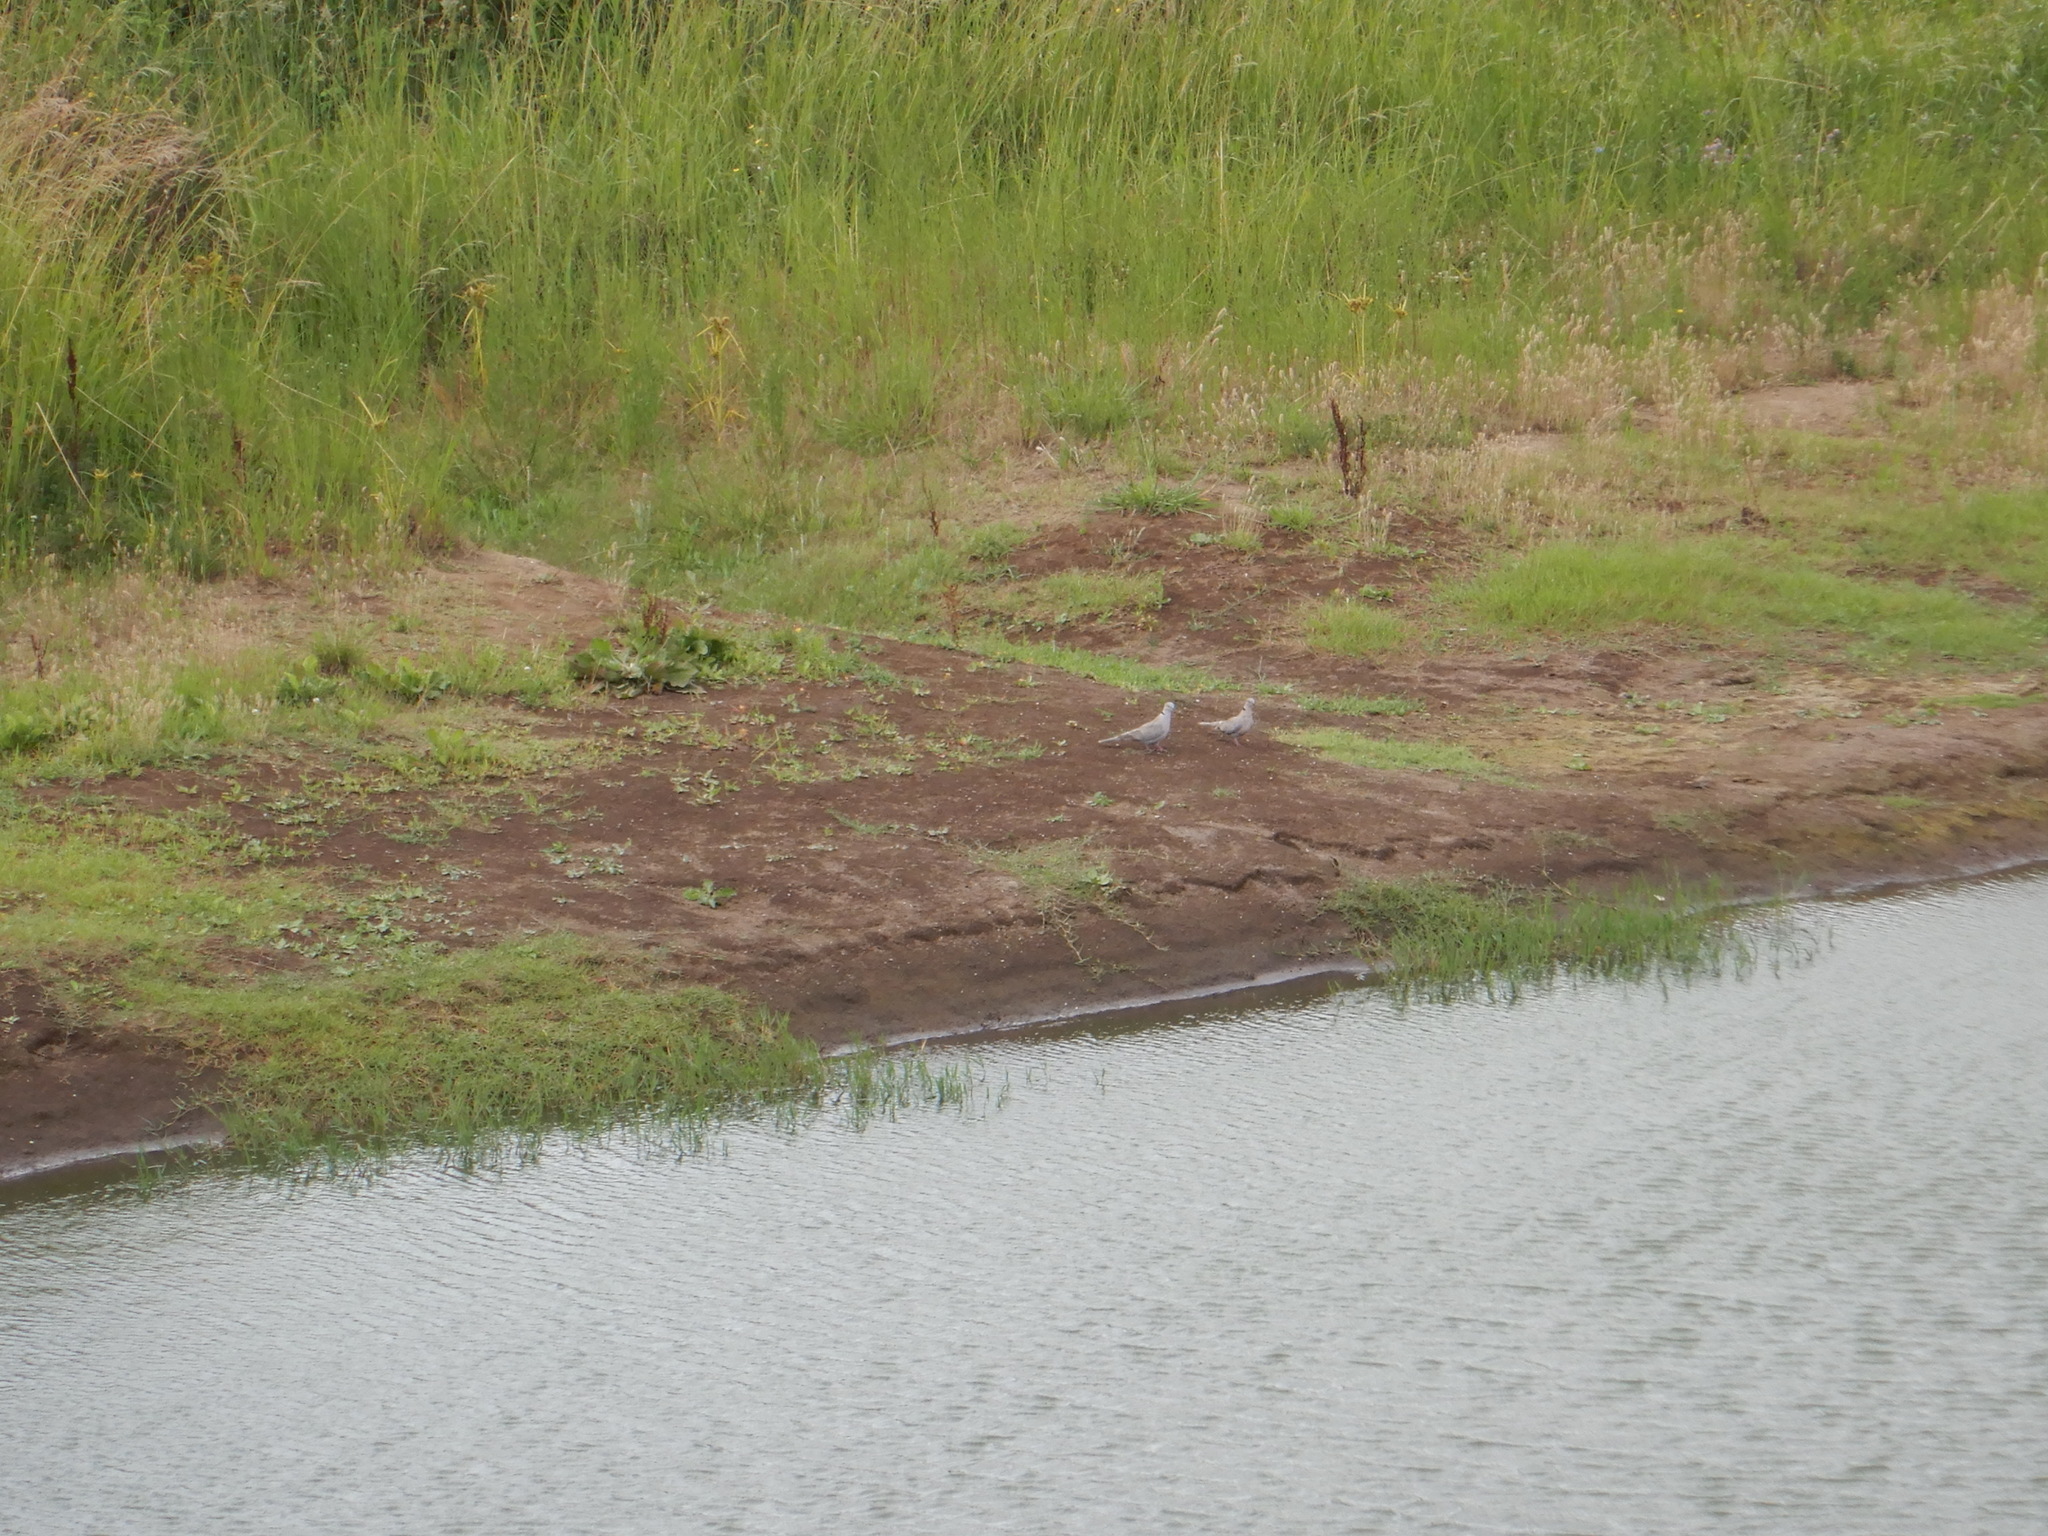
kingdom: Animalia
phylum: Chordata
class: Aves
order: Columbiformes
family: Columbidae
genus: Streptopelia
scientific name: Streptopelia decaocto
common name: Eurasian collared dove
